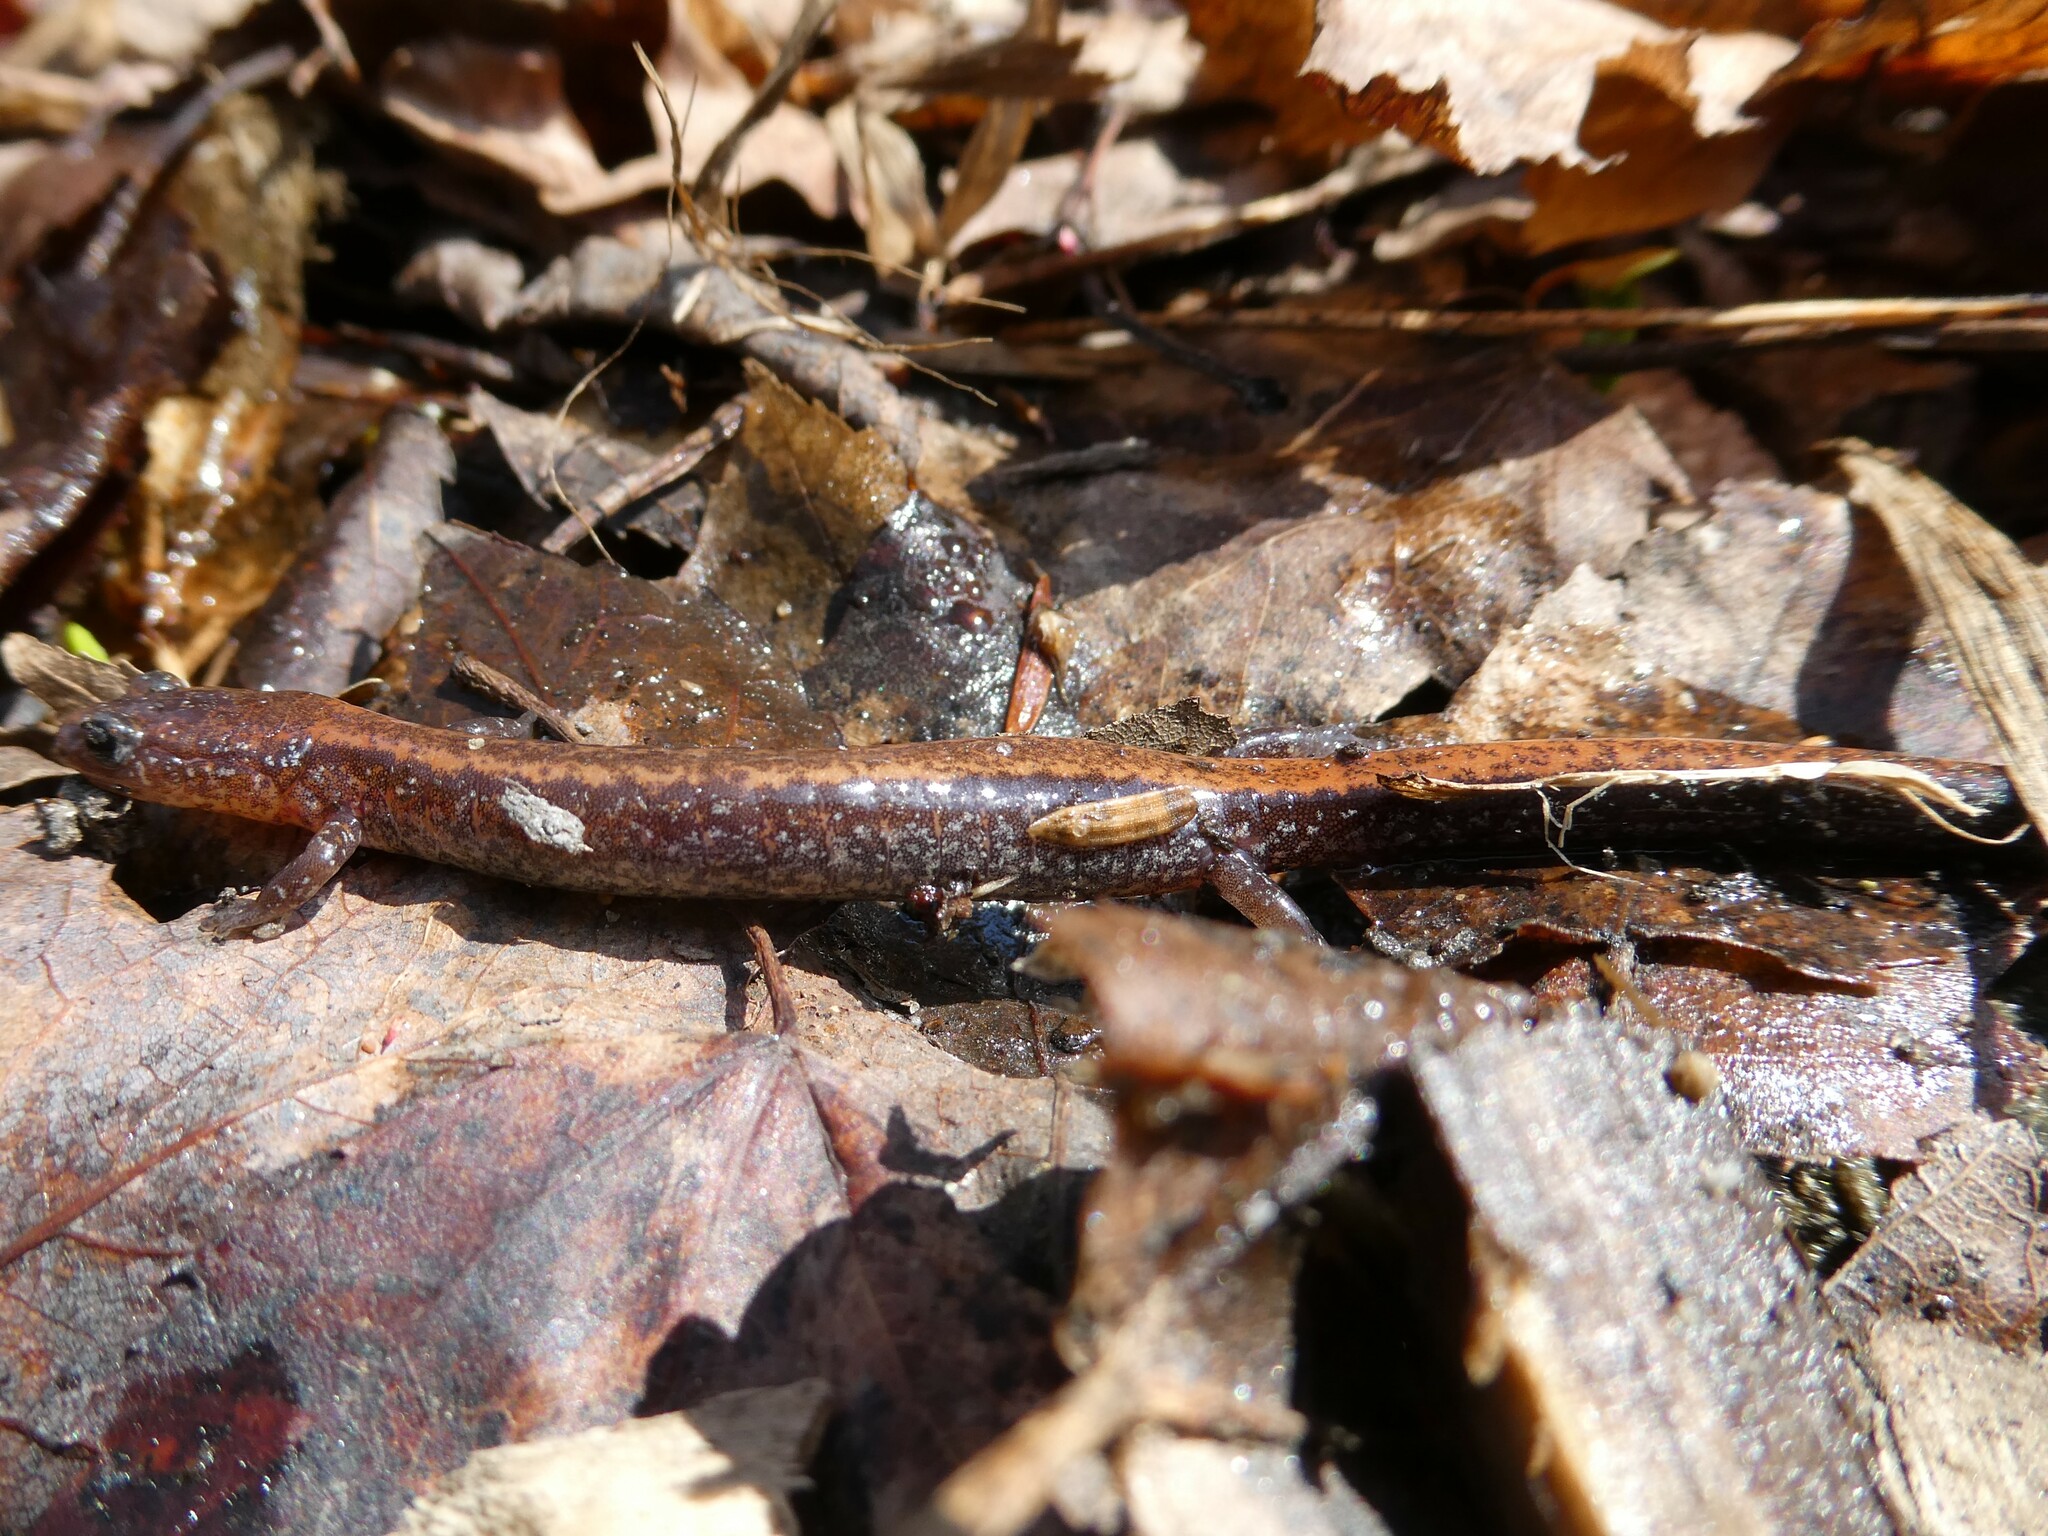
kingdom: Animalia
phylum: Chordata
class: Amphibia
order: Caudata
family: Plethodontidae
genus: Plethodon
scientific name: Plethodon cinereus
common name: Redback salamander
